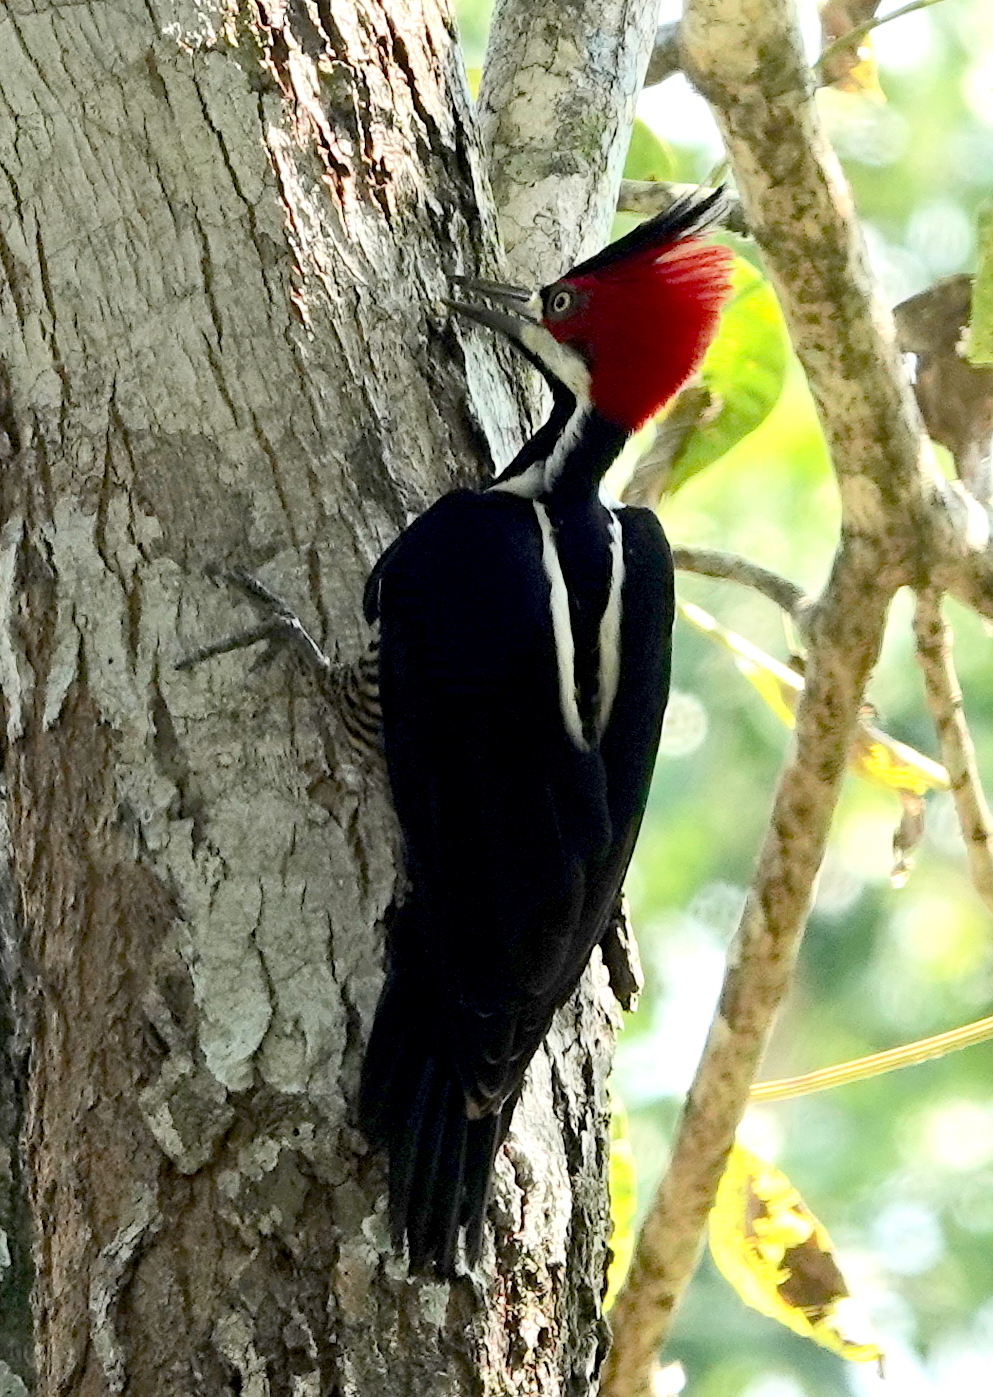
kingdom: Animalia
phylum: Chordata
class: Aves
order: Piciformes
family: Picidae
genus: Campephilus
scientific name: Campephilus melanoleucos
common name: Crimson-crested woodpecker
